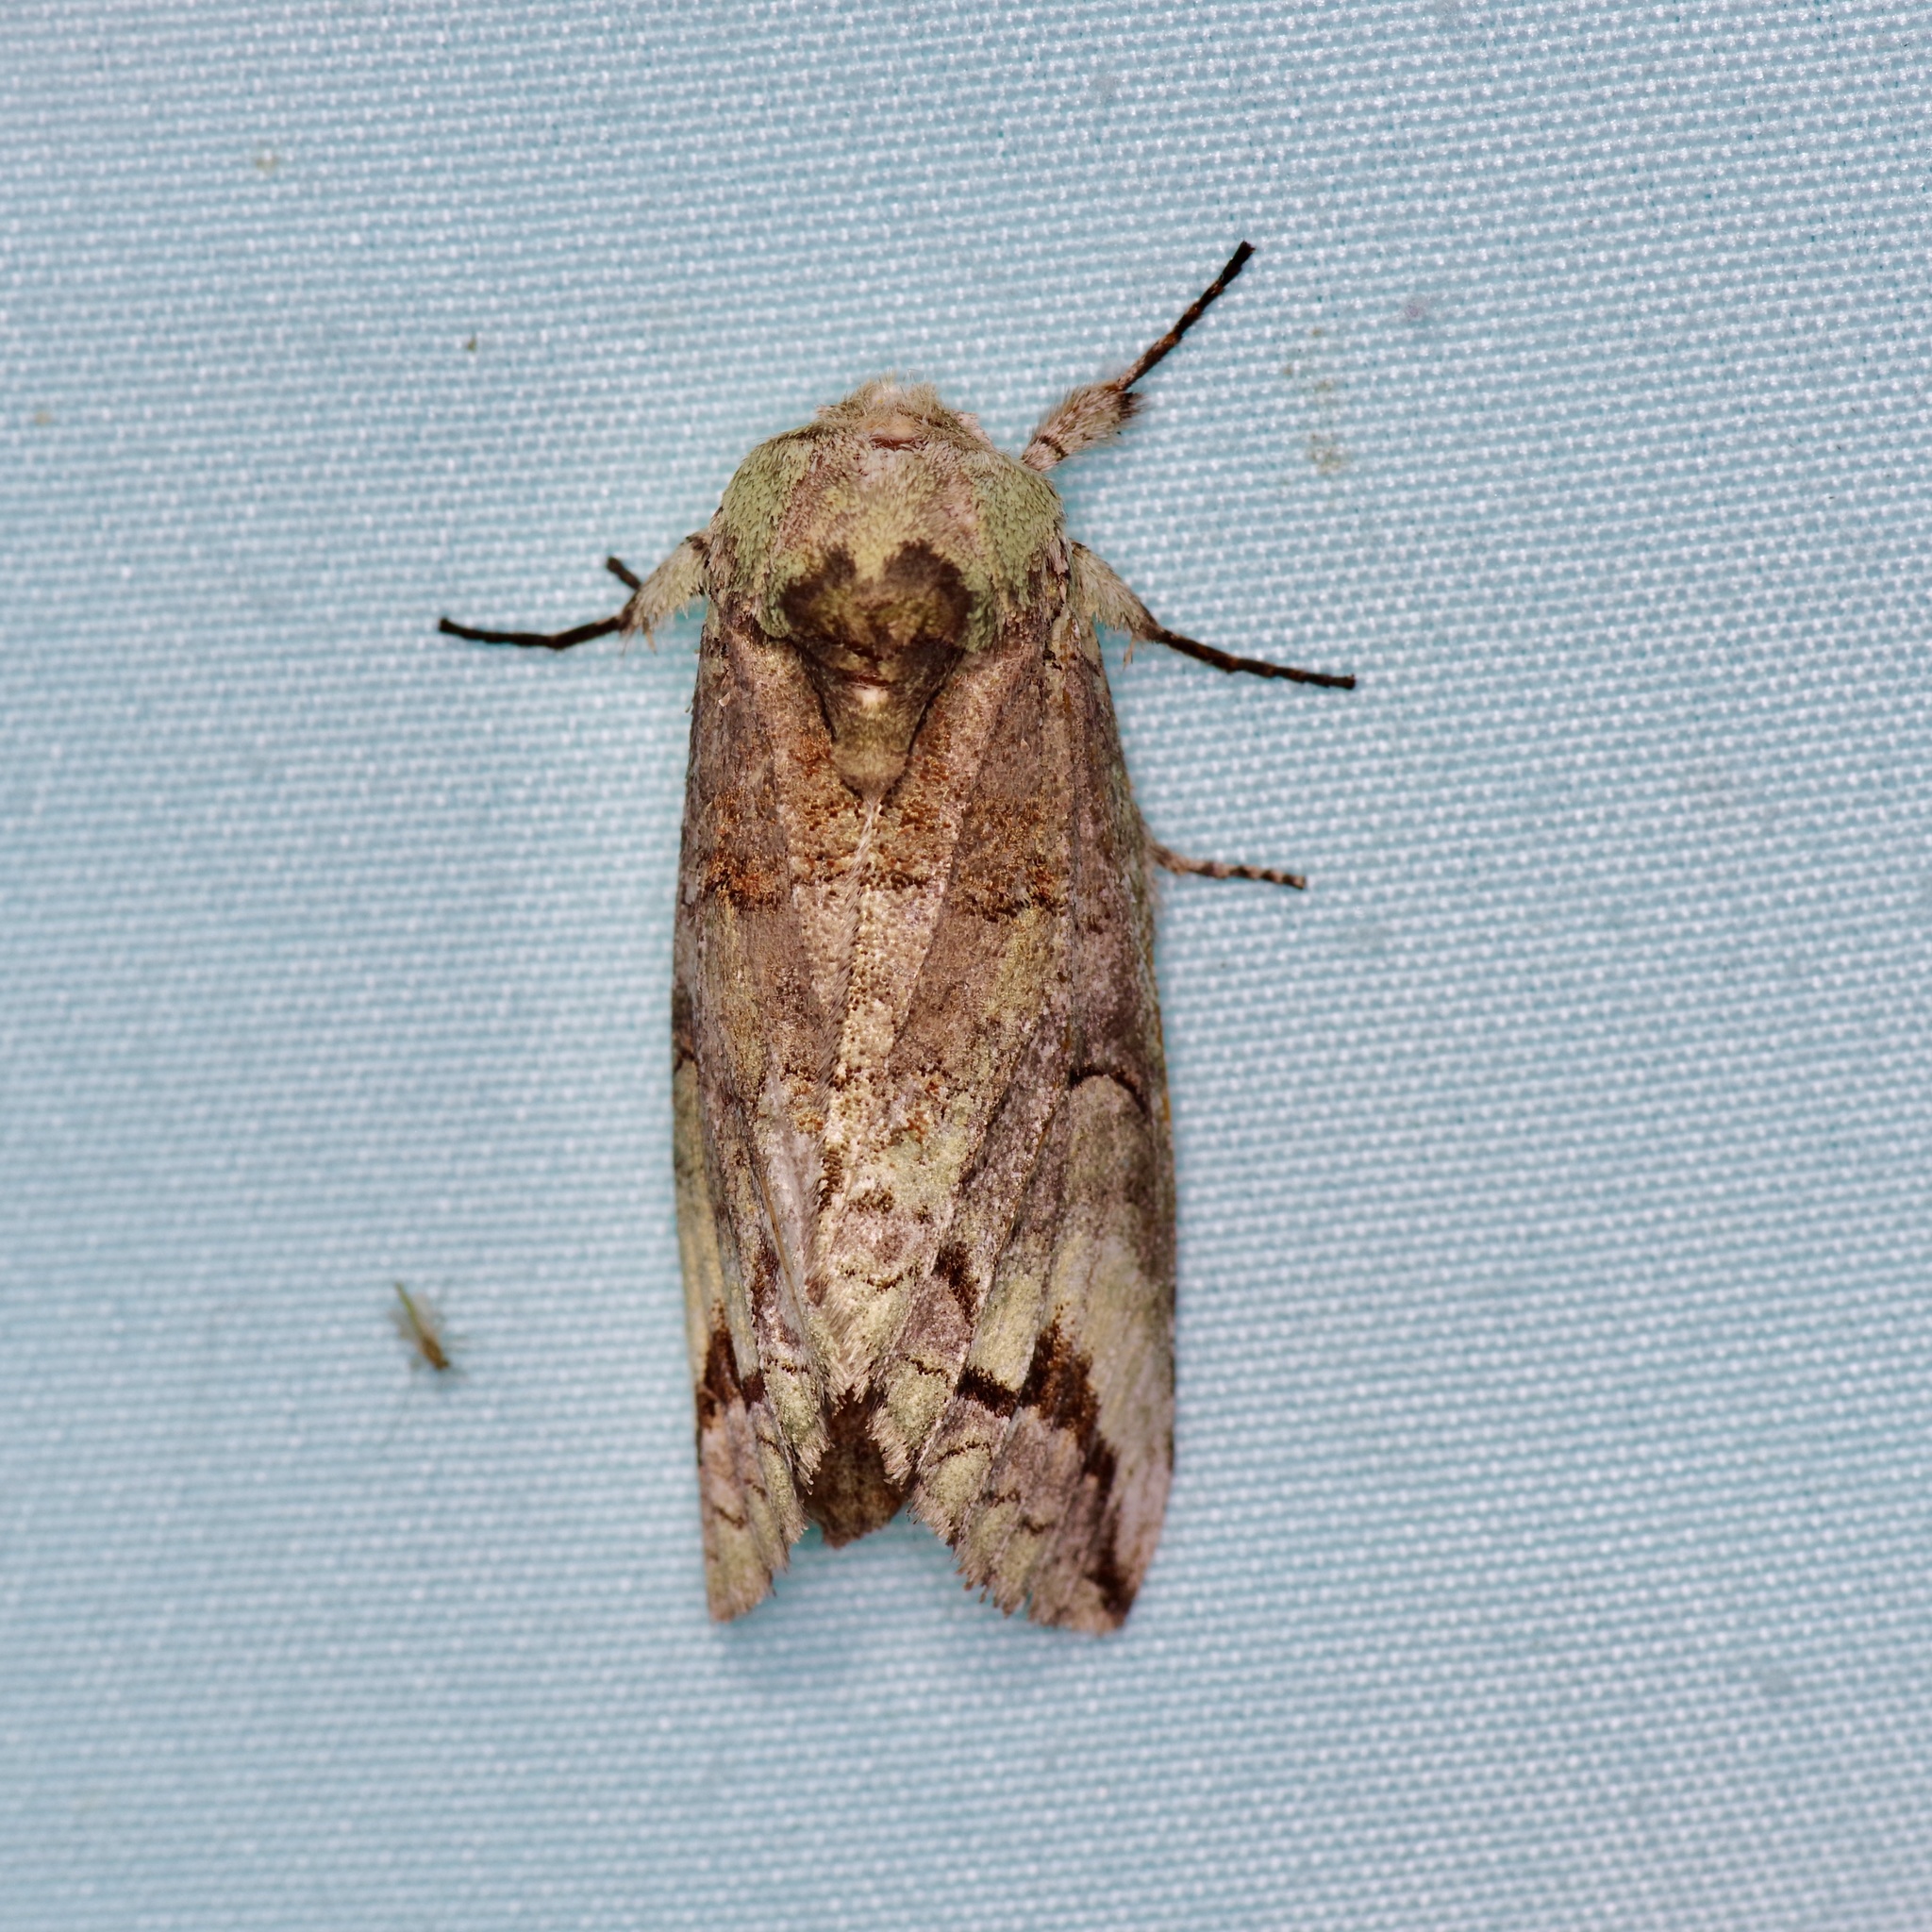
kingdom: Animalia
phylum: Arthropoda
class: Insecta
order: Lepidoptera
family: Notodontidae
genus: Heterocampa
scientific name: Heterocampa astartoides
